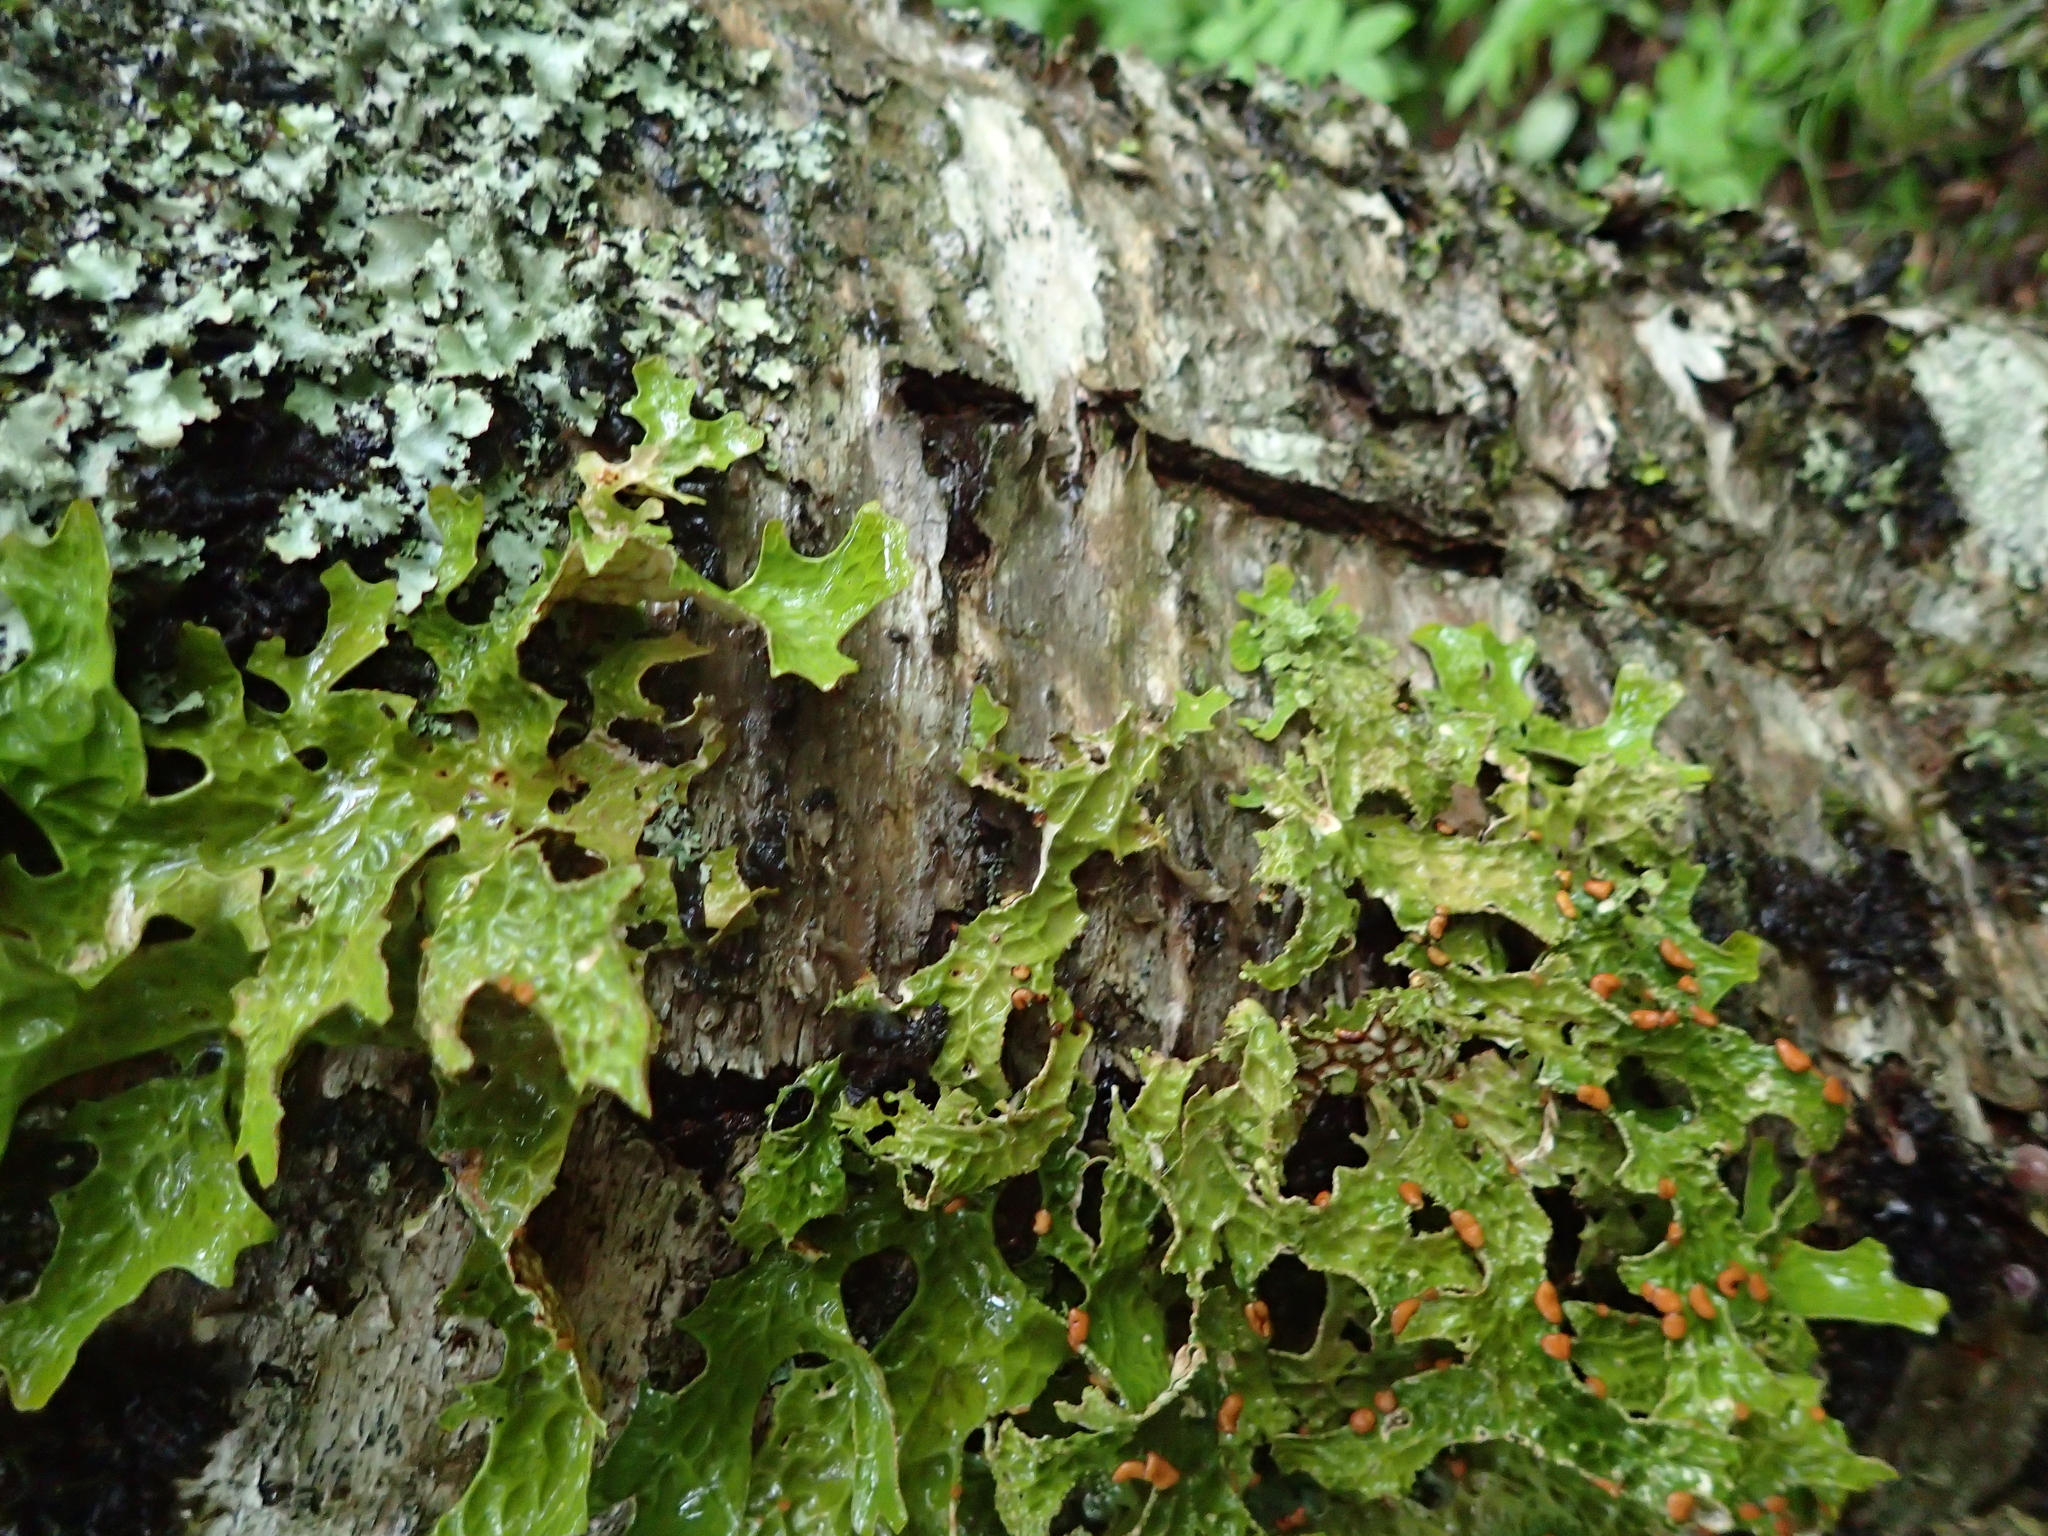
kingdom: Fungi
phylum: Ascomycota
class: Lecanoromycetes
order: Peltigerales
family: Lobariaceae
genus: Lobaria
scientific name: Lobaria pulmonaria
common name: Lungwort
